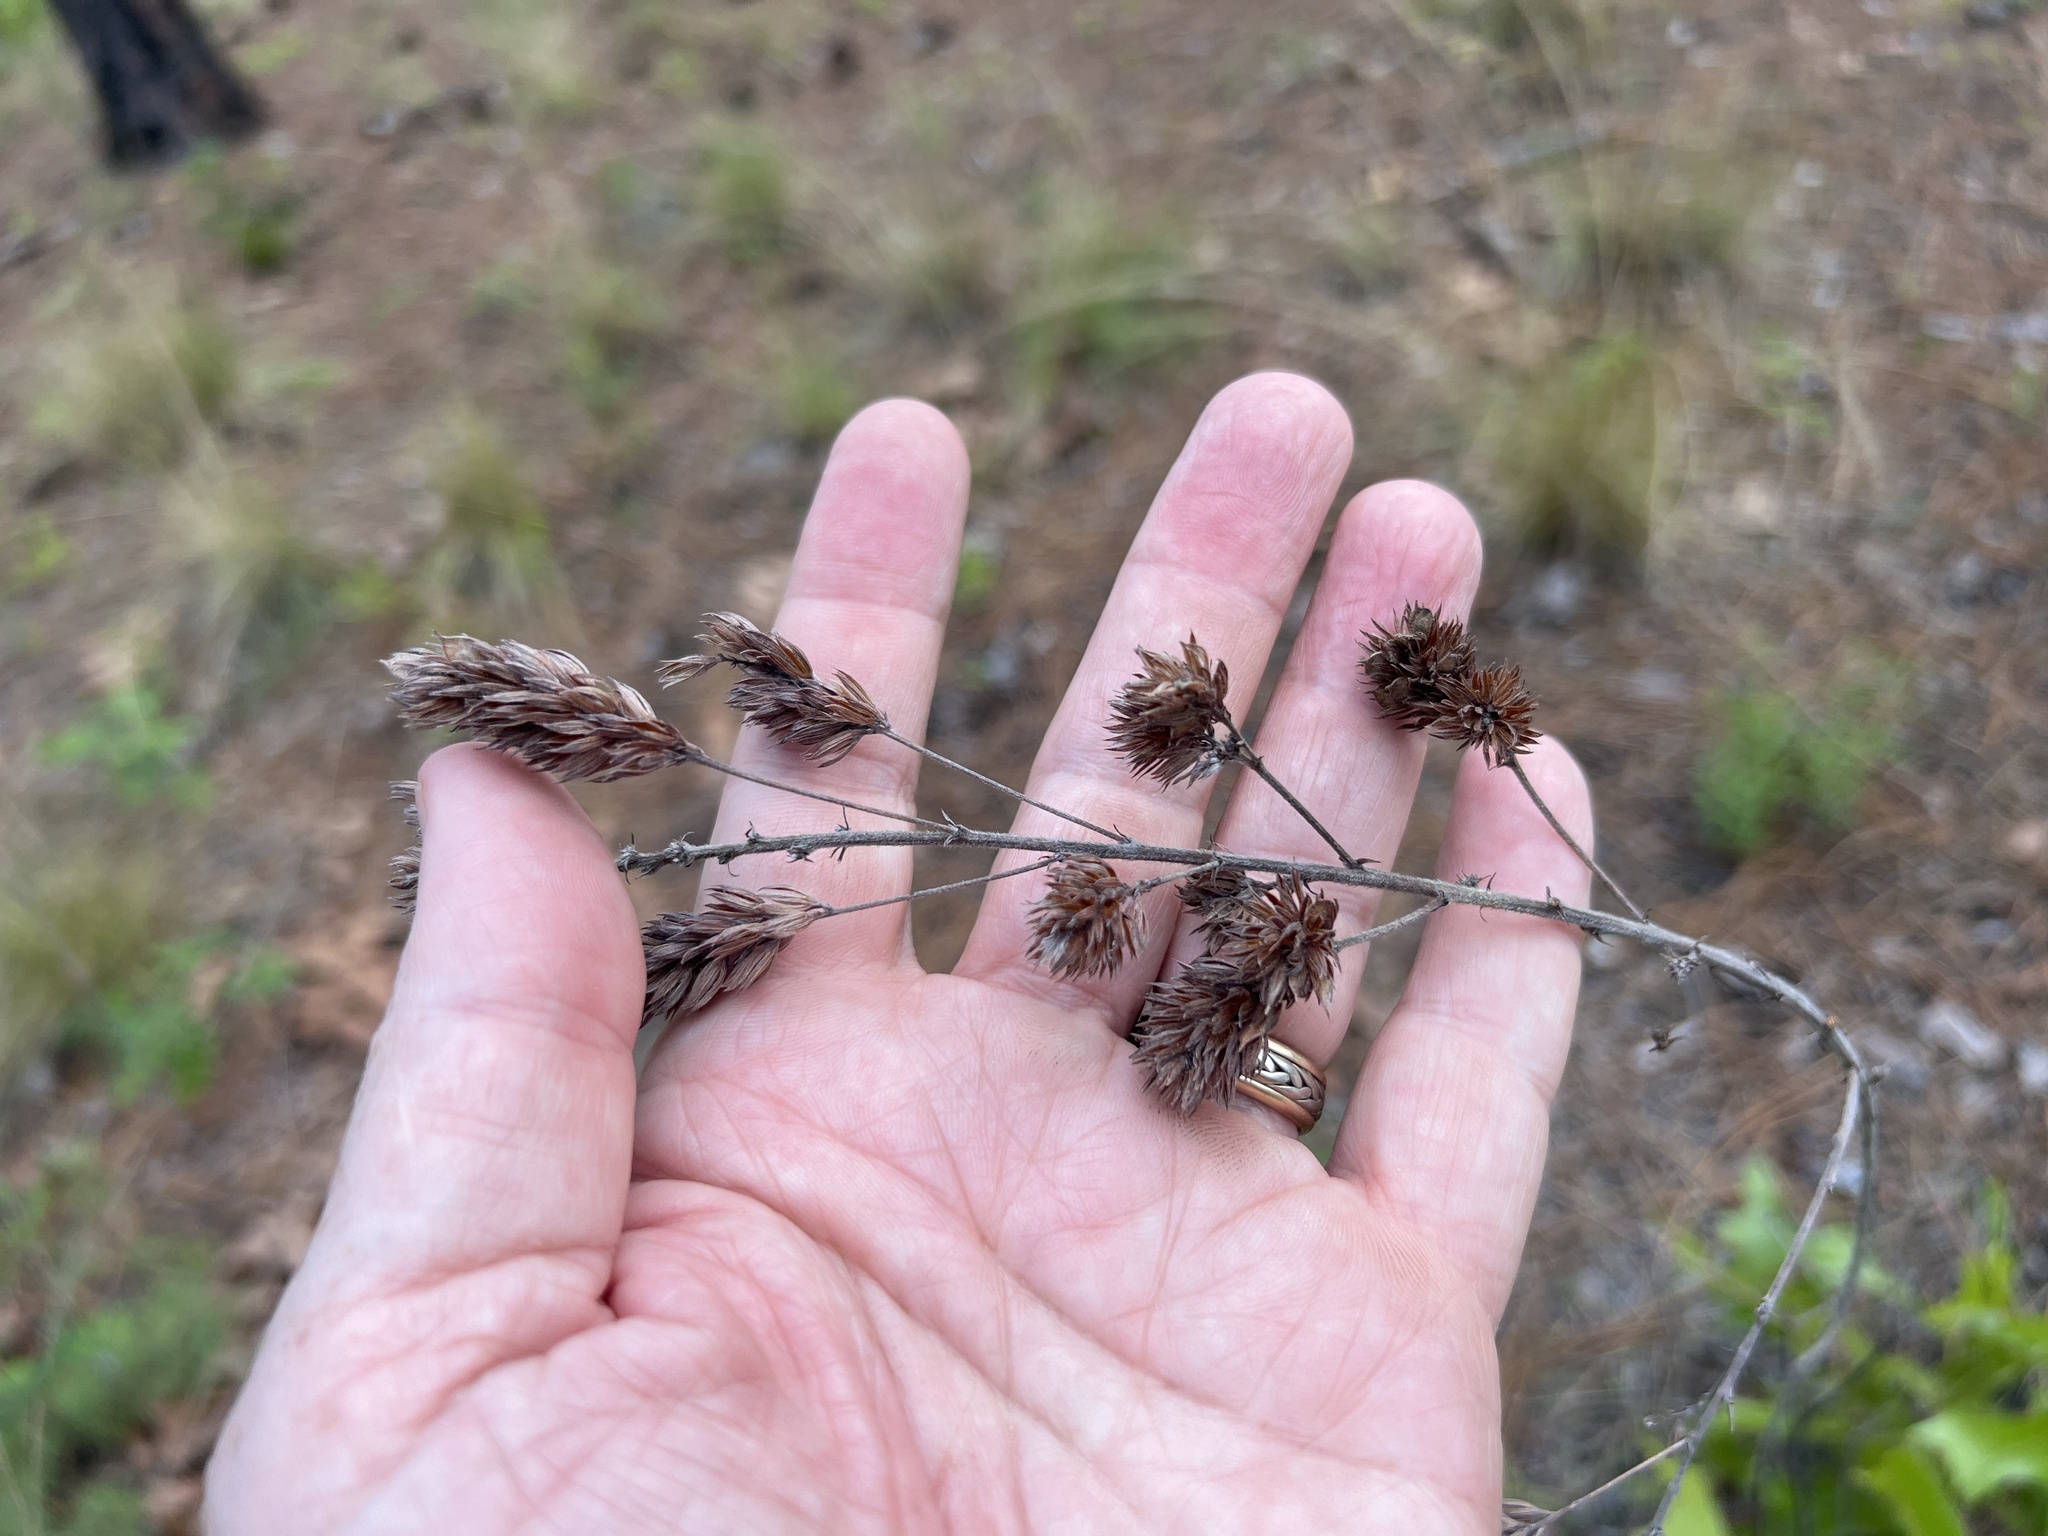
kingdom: Plantae
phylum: Tracheophyta
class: Magnoliopsida
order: Fabales
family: Fabaceae
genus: Lespedeza
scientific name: Lespedeza hirta
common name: Hairy lespedeza
